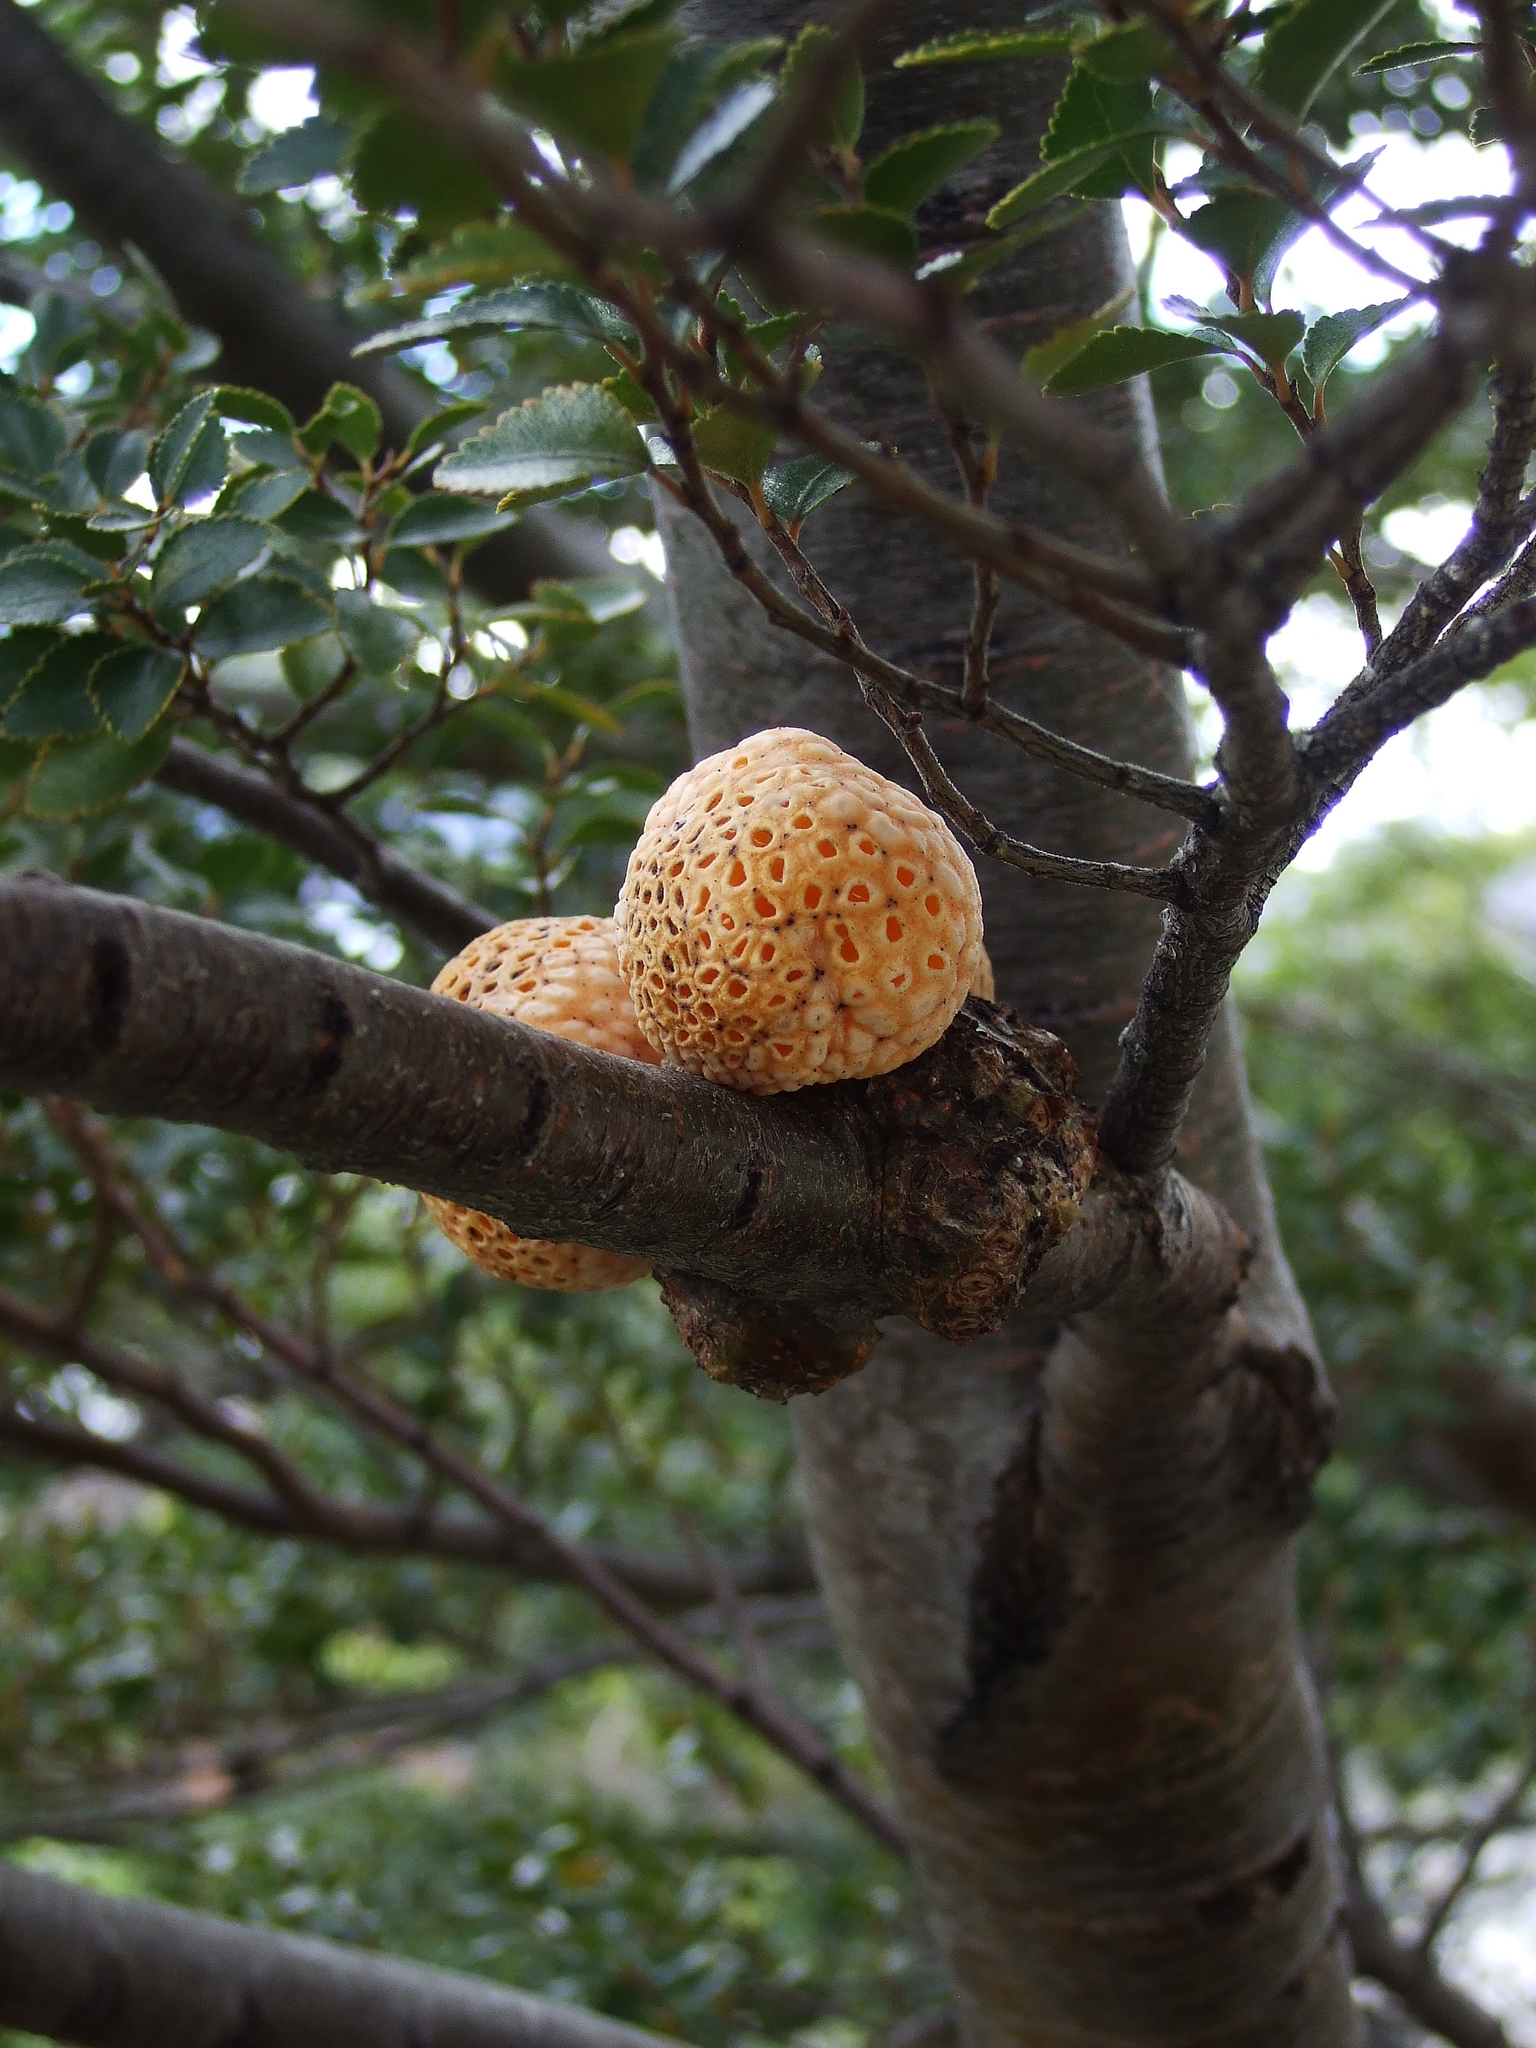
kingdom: Fungi
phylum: Ascomycota
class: Leotiomycetes
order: Cyttariales
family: Cyttariaceae
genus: Cyttaria
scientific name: Cyttaria hariotii
